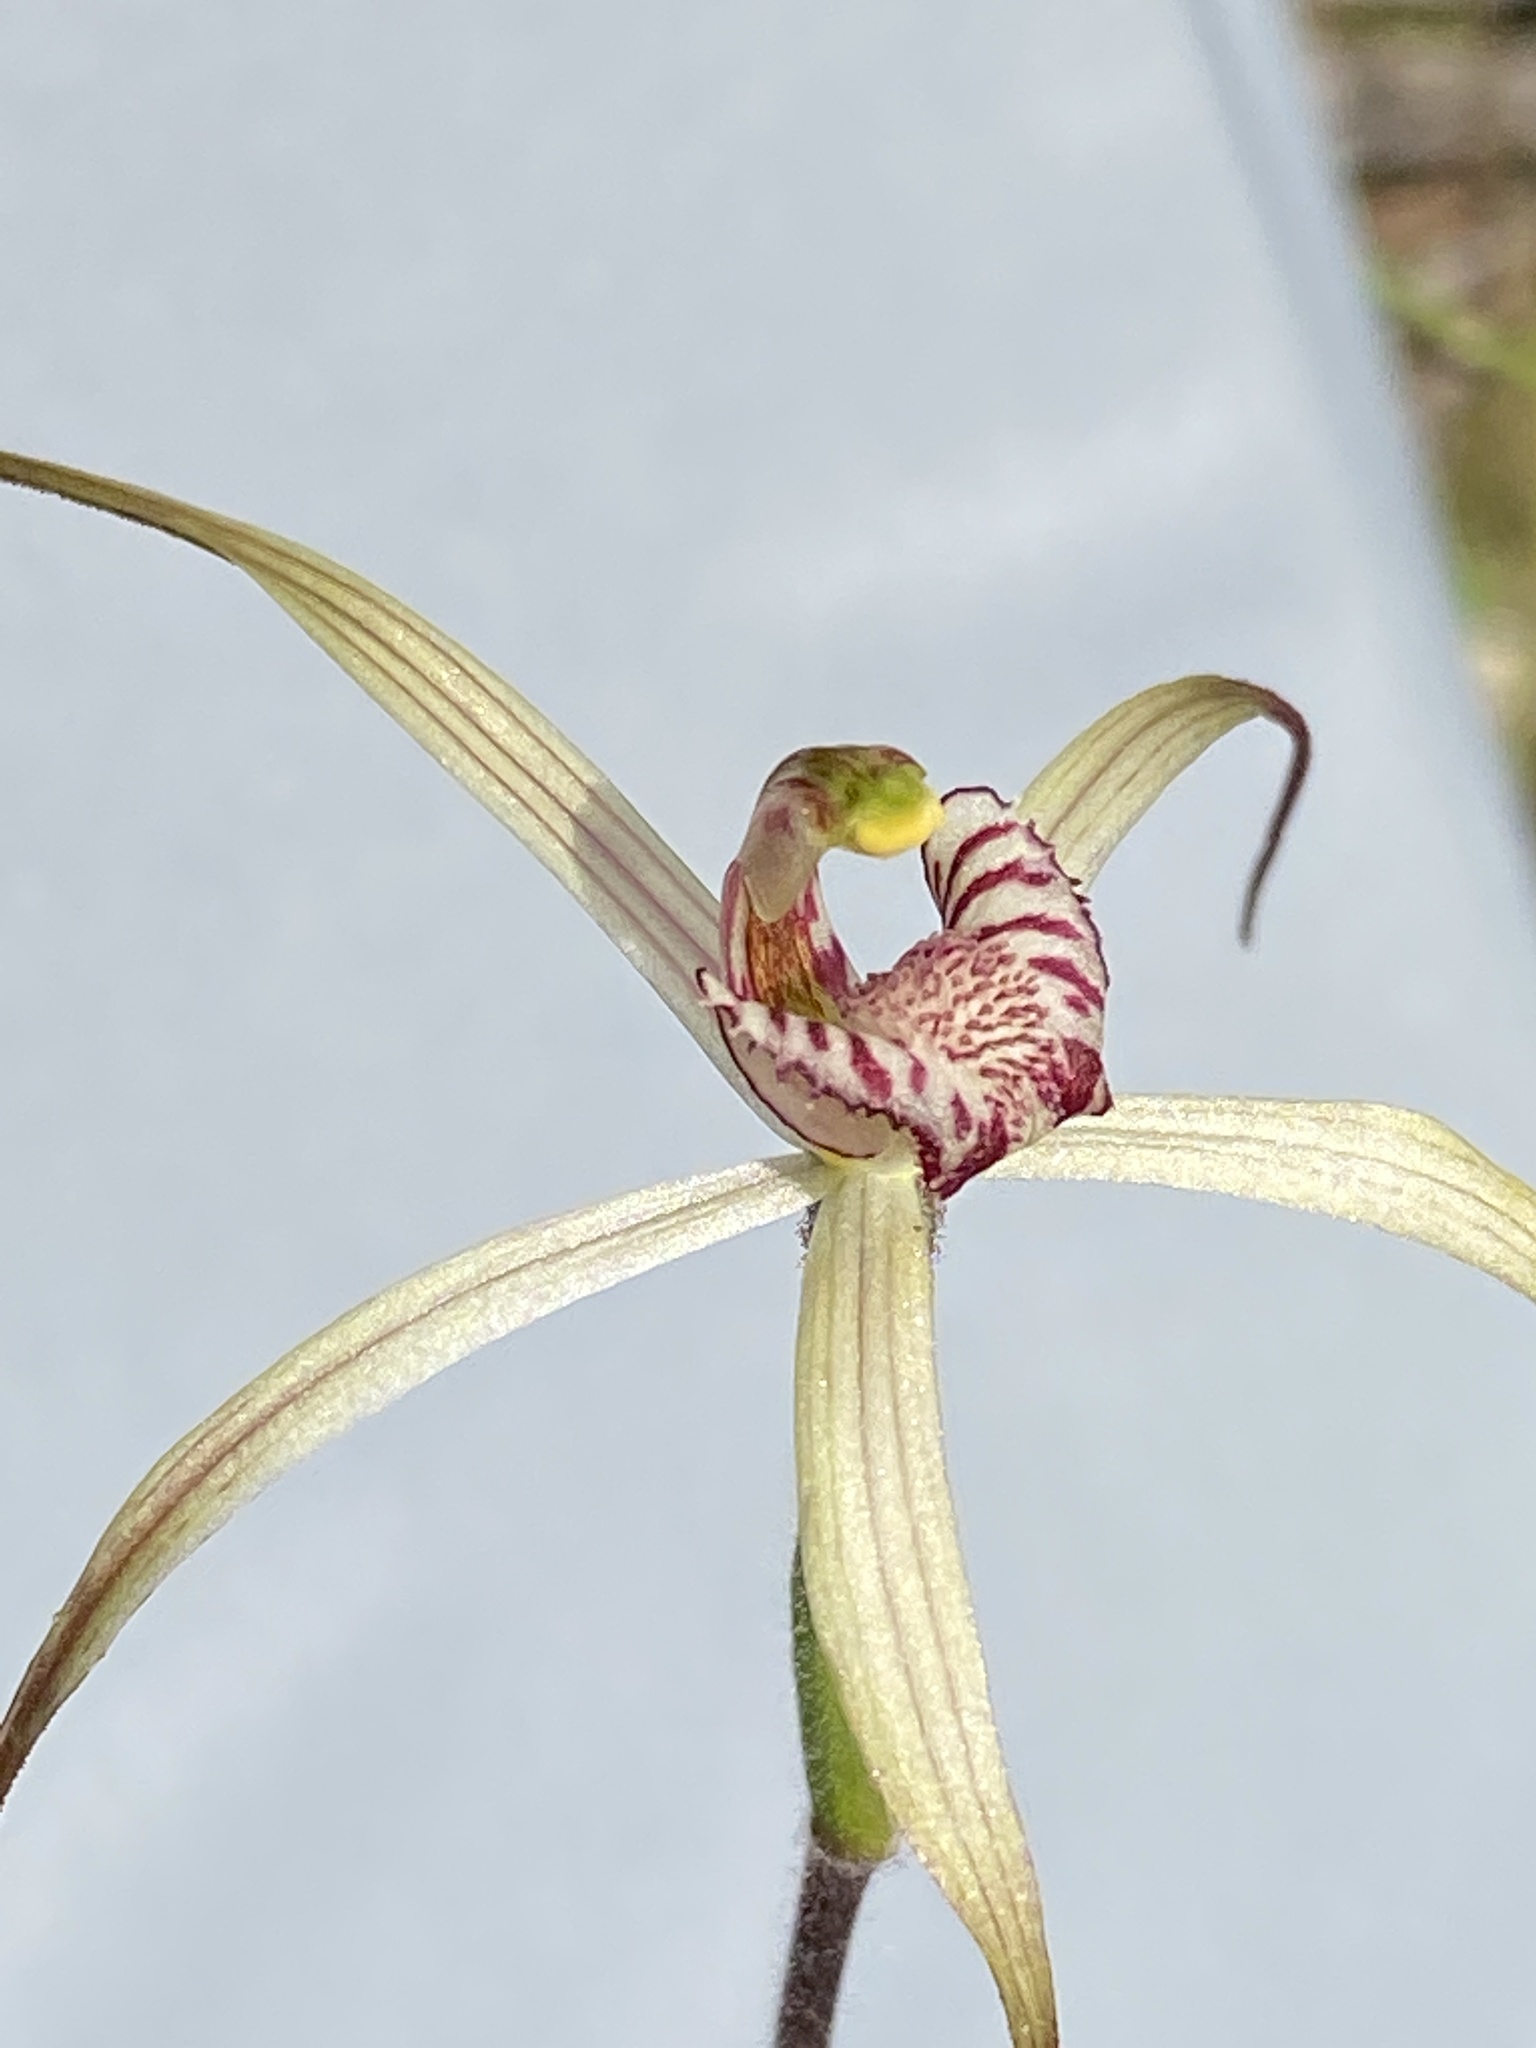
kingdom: Plantae
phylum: Tracheophyta
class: Liliopsida
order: Asparagales
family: Orchidaceae
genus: Caladenia
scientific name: Caladenia radialis
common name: Drooping spider orchid
